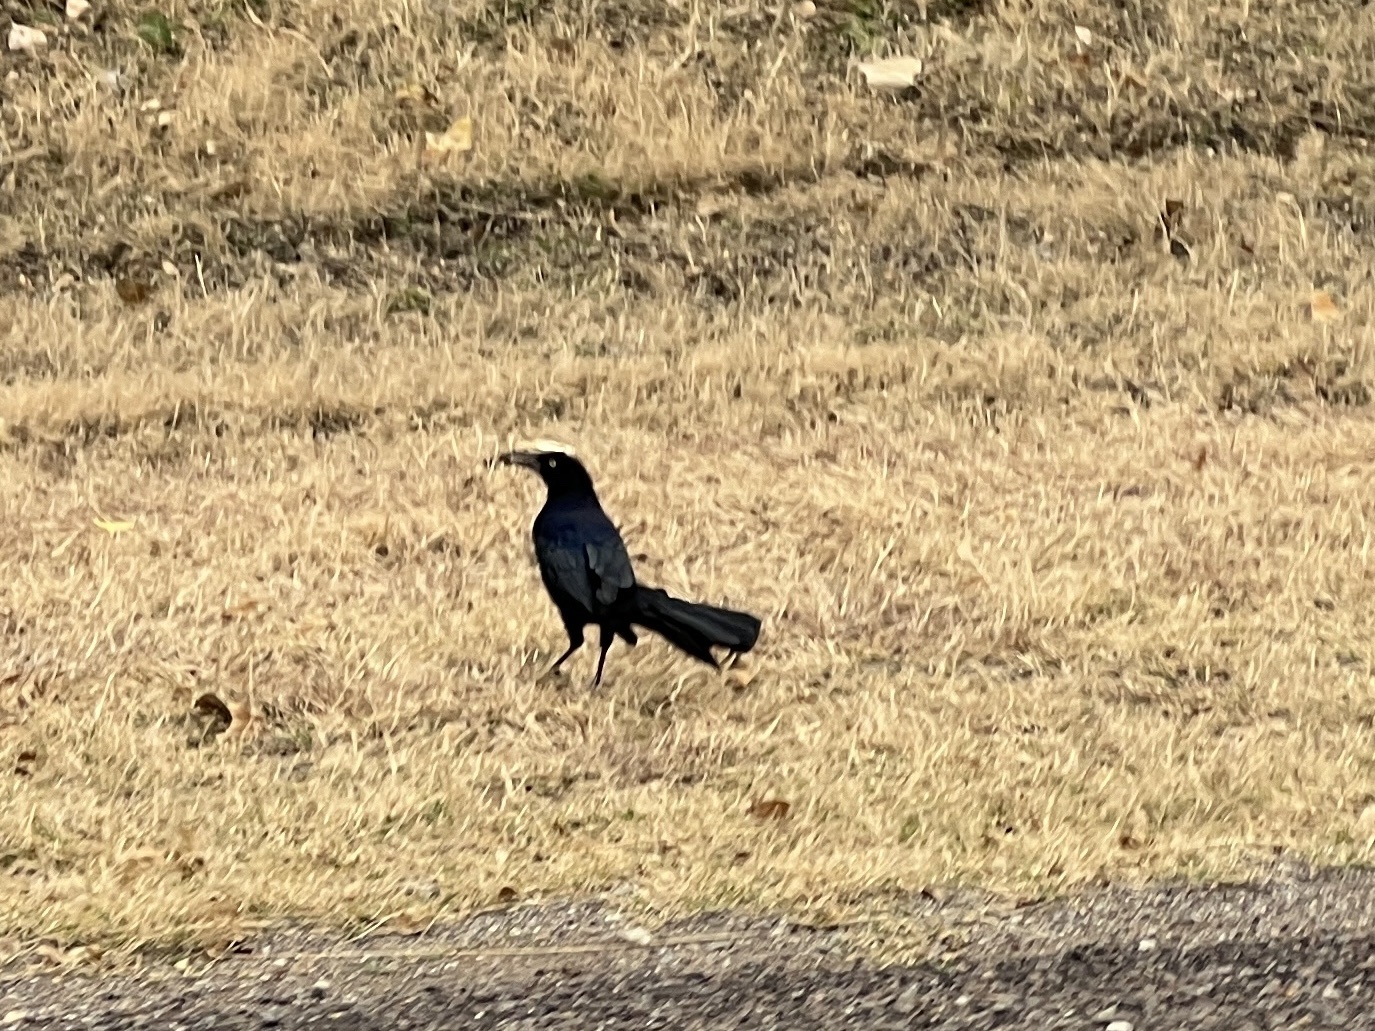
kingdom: Animalia
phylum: Chordata
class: Aves
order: Passeriformes
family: Icteridae
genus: Quiscalus
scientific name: Quiscalus mexicanus
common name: Great-tailed grackle
